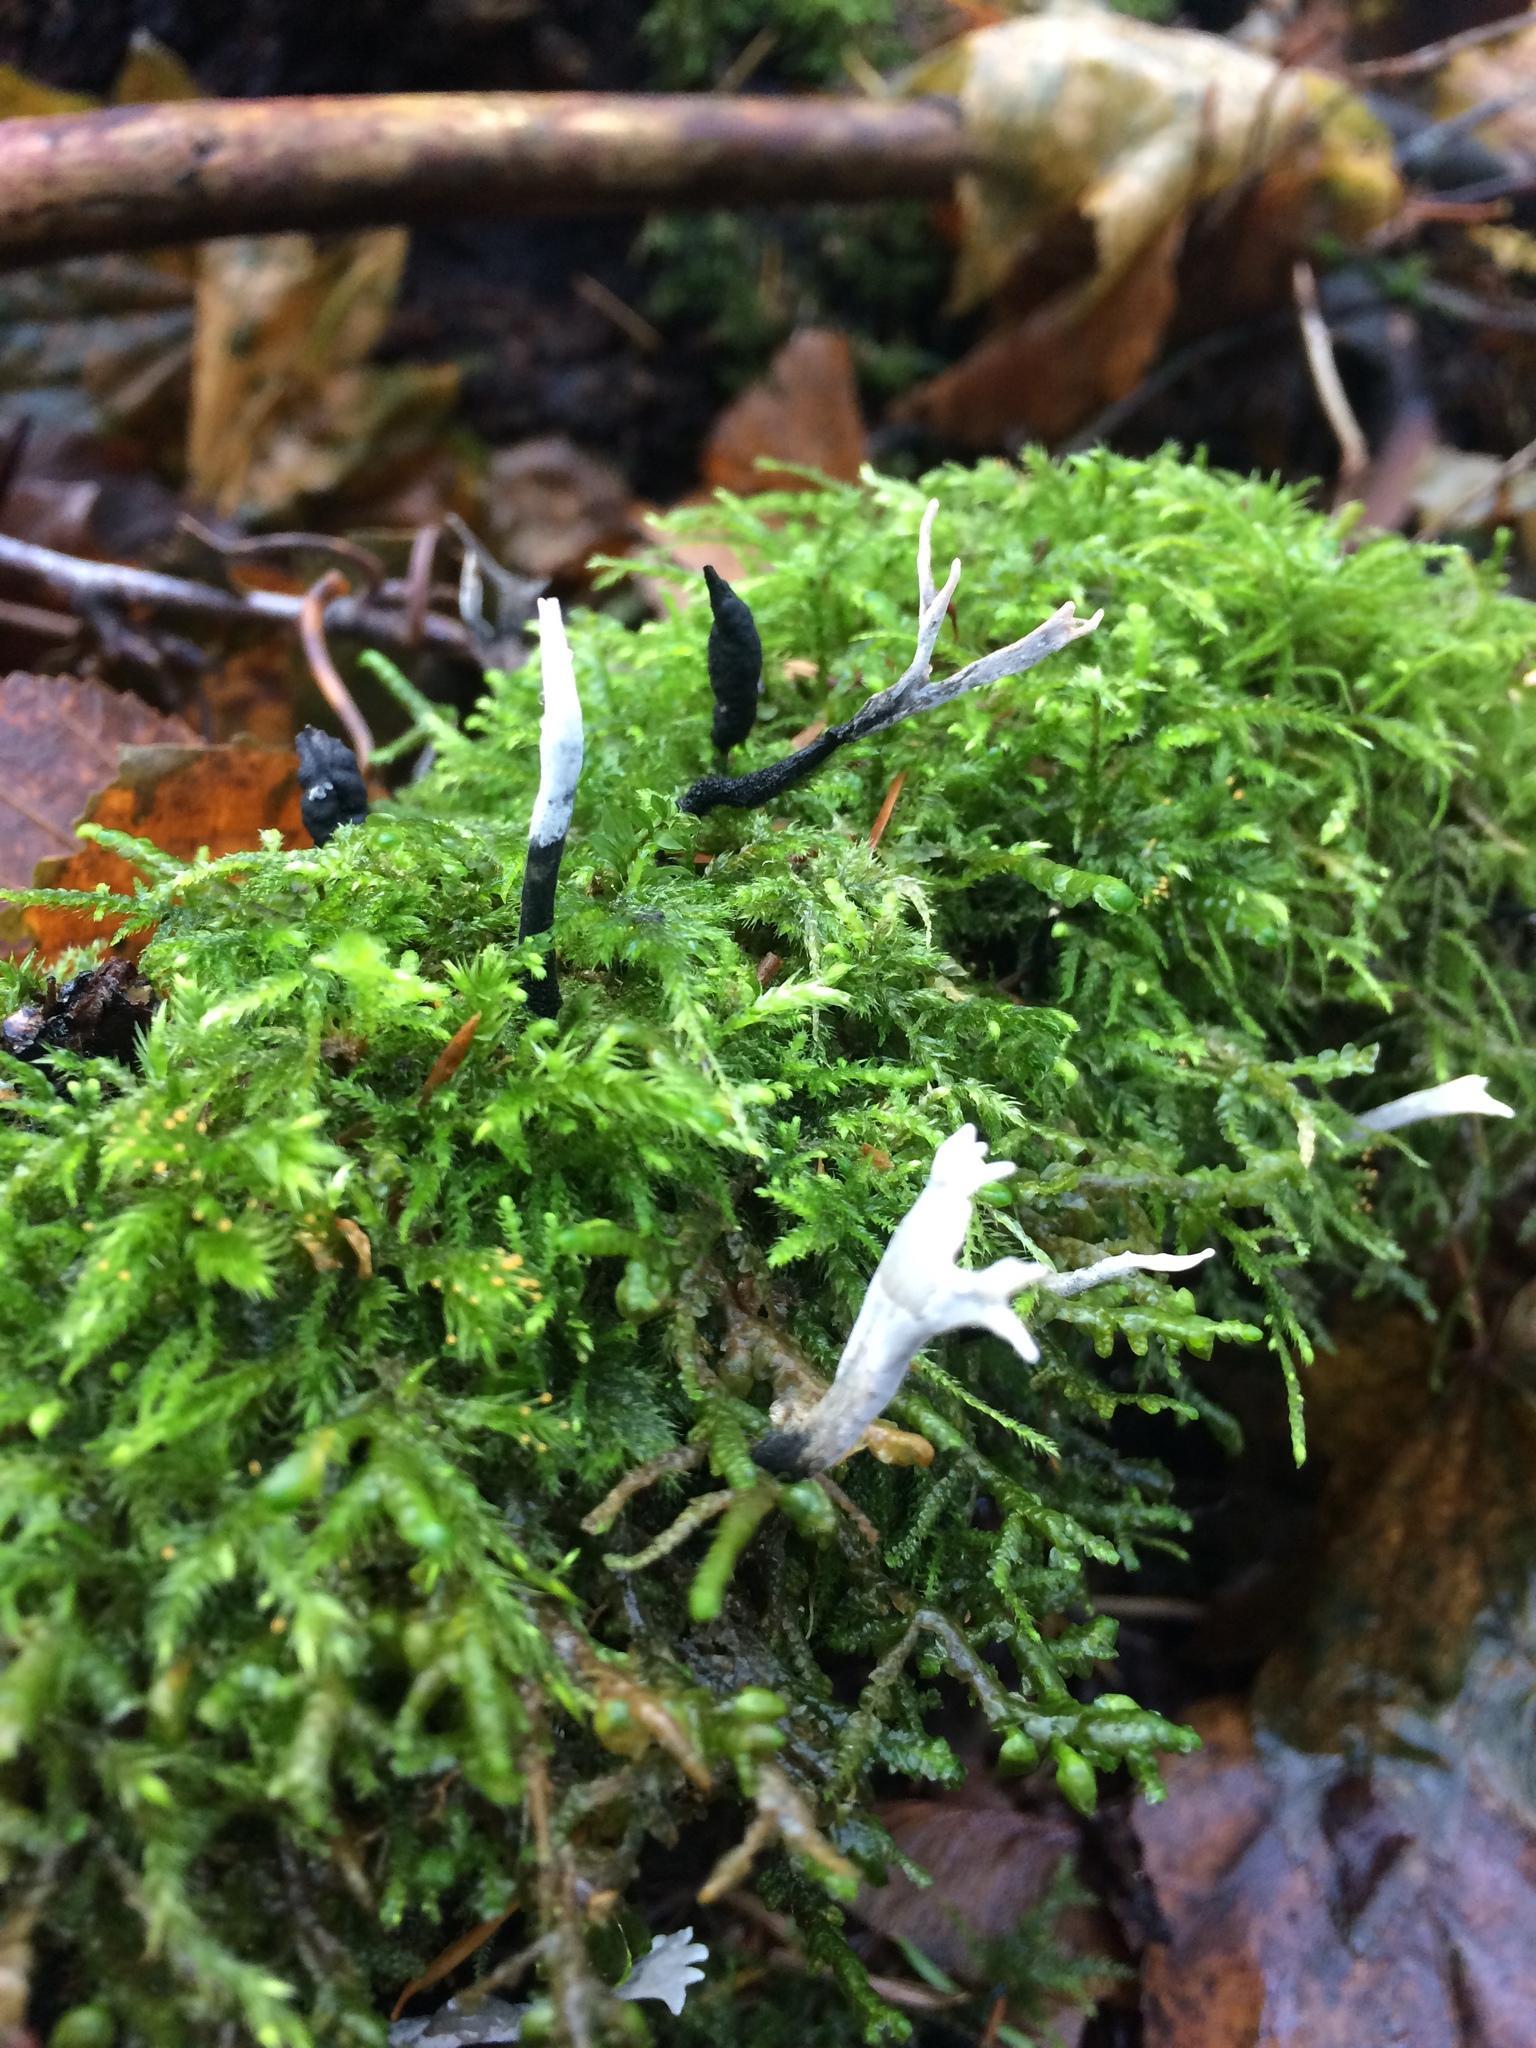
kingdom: Fungi
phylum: Ascomycota
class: Sordariomycetes
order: Xylariales
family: Xylariaceae
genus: Xylaria
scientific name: Xylaria hypoxylon
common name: Candle-snuff fungus
